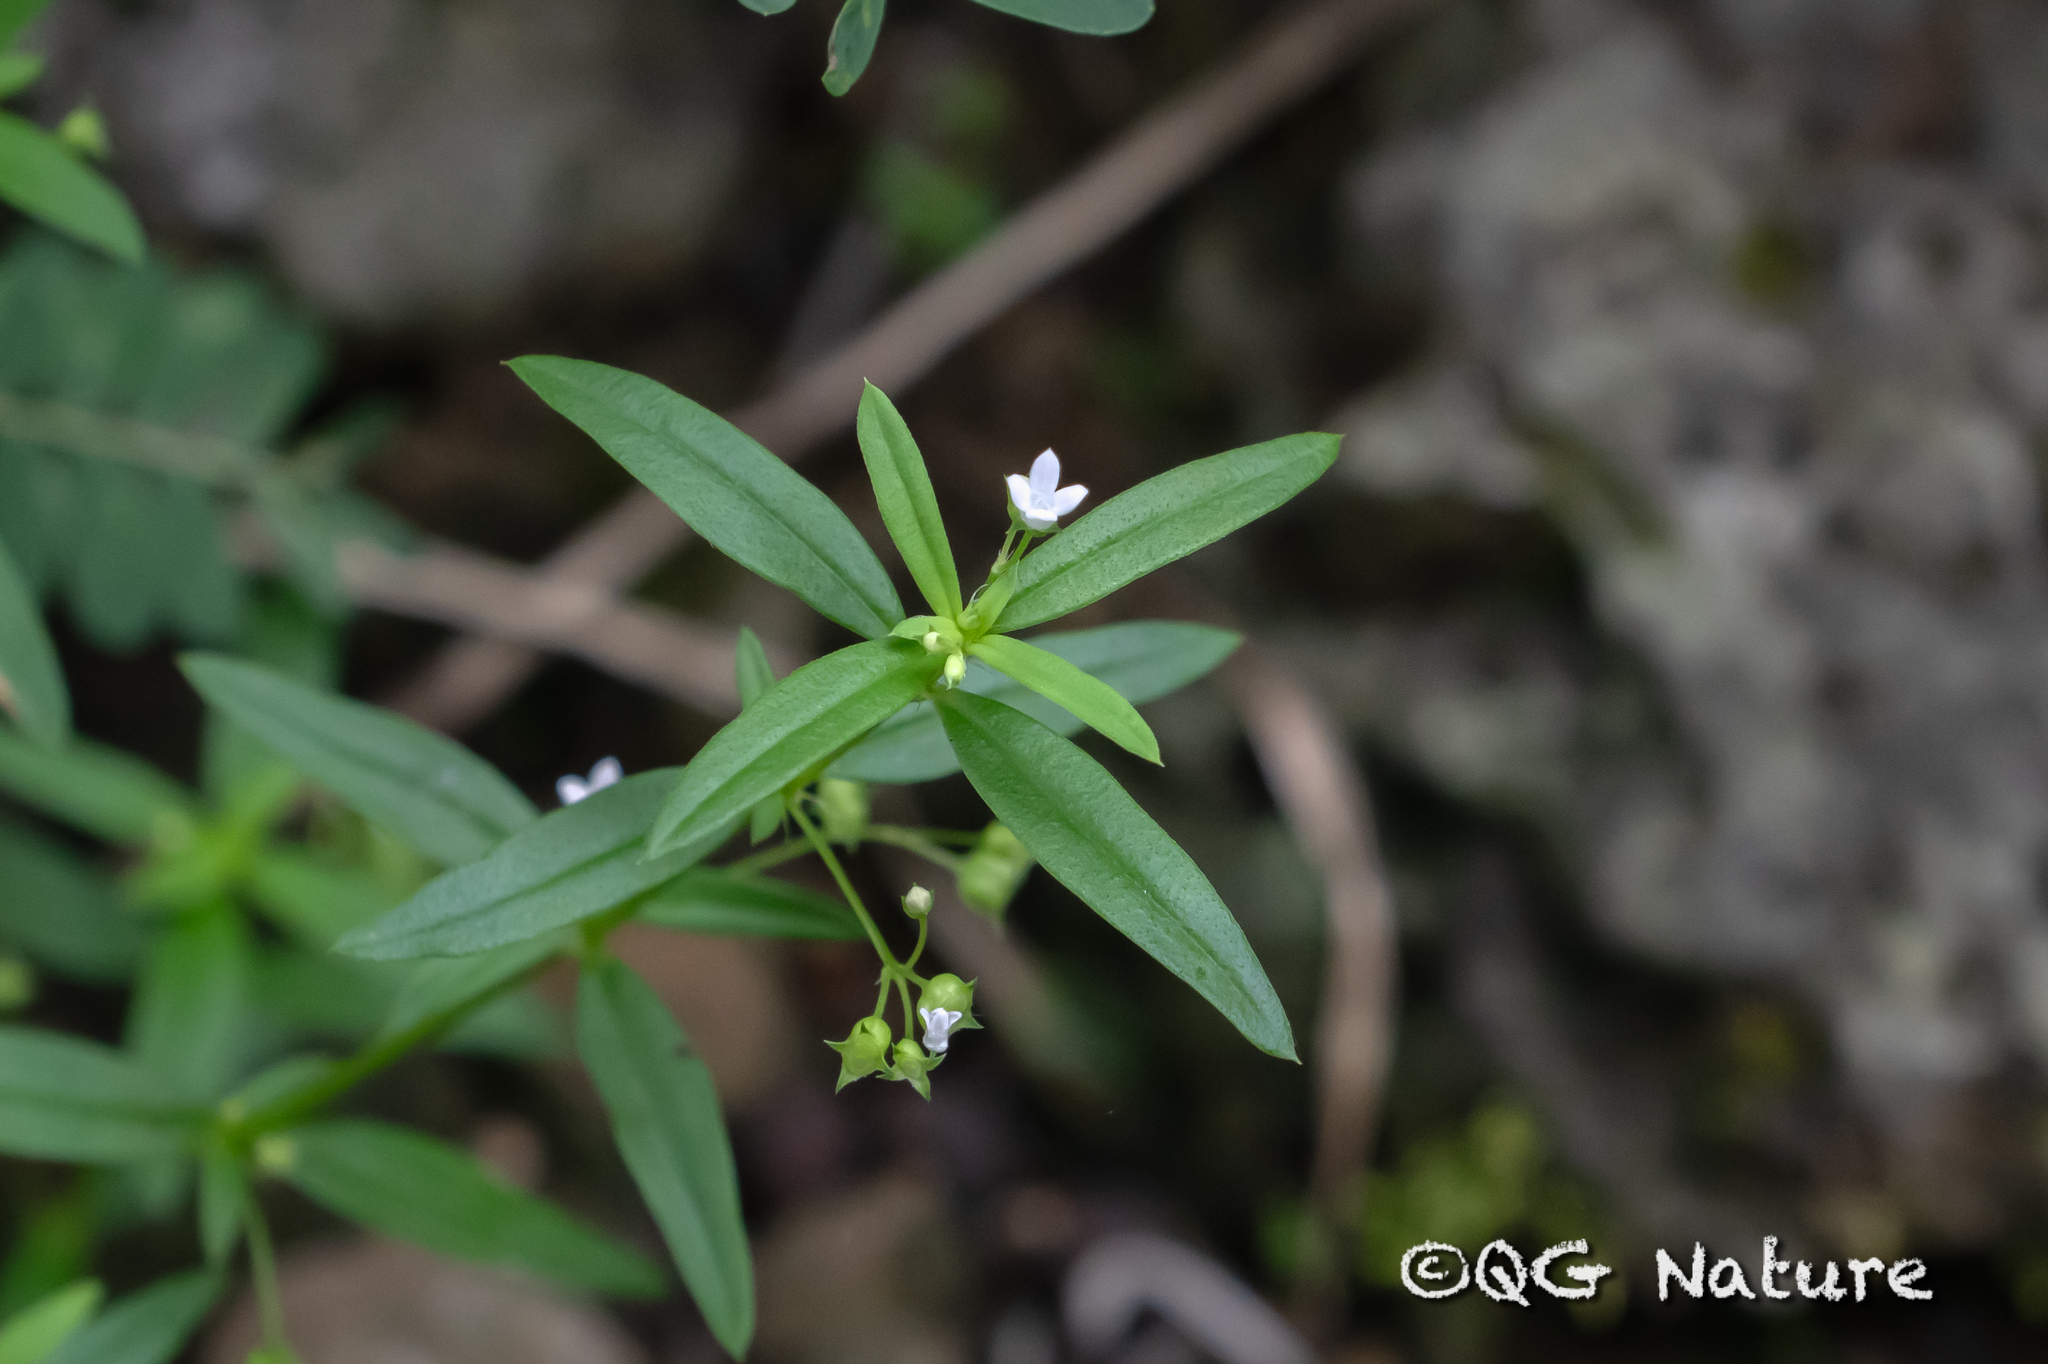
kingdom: Plantae
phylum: Tracheophyta
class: Magnoliopsida
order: Gentianales
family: Rubiaceae
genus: Oldenlandia
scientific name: Oldenlandia corymbosa
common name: Flat-top mille graines
